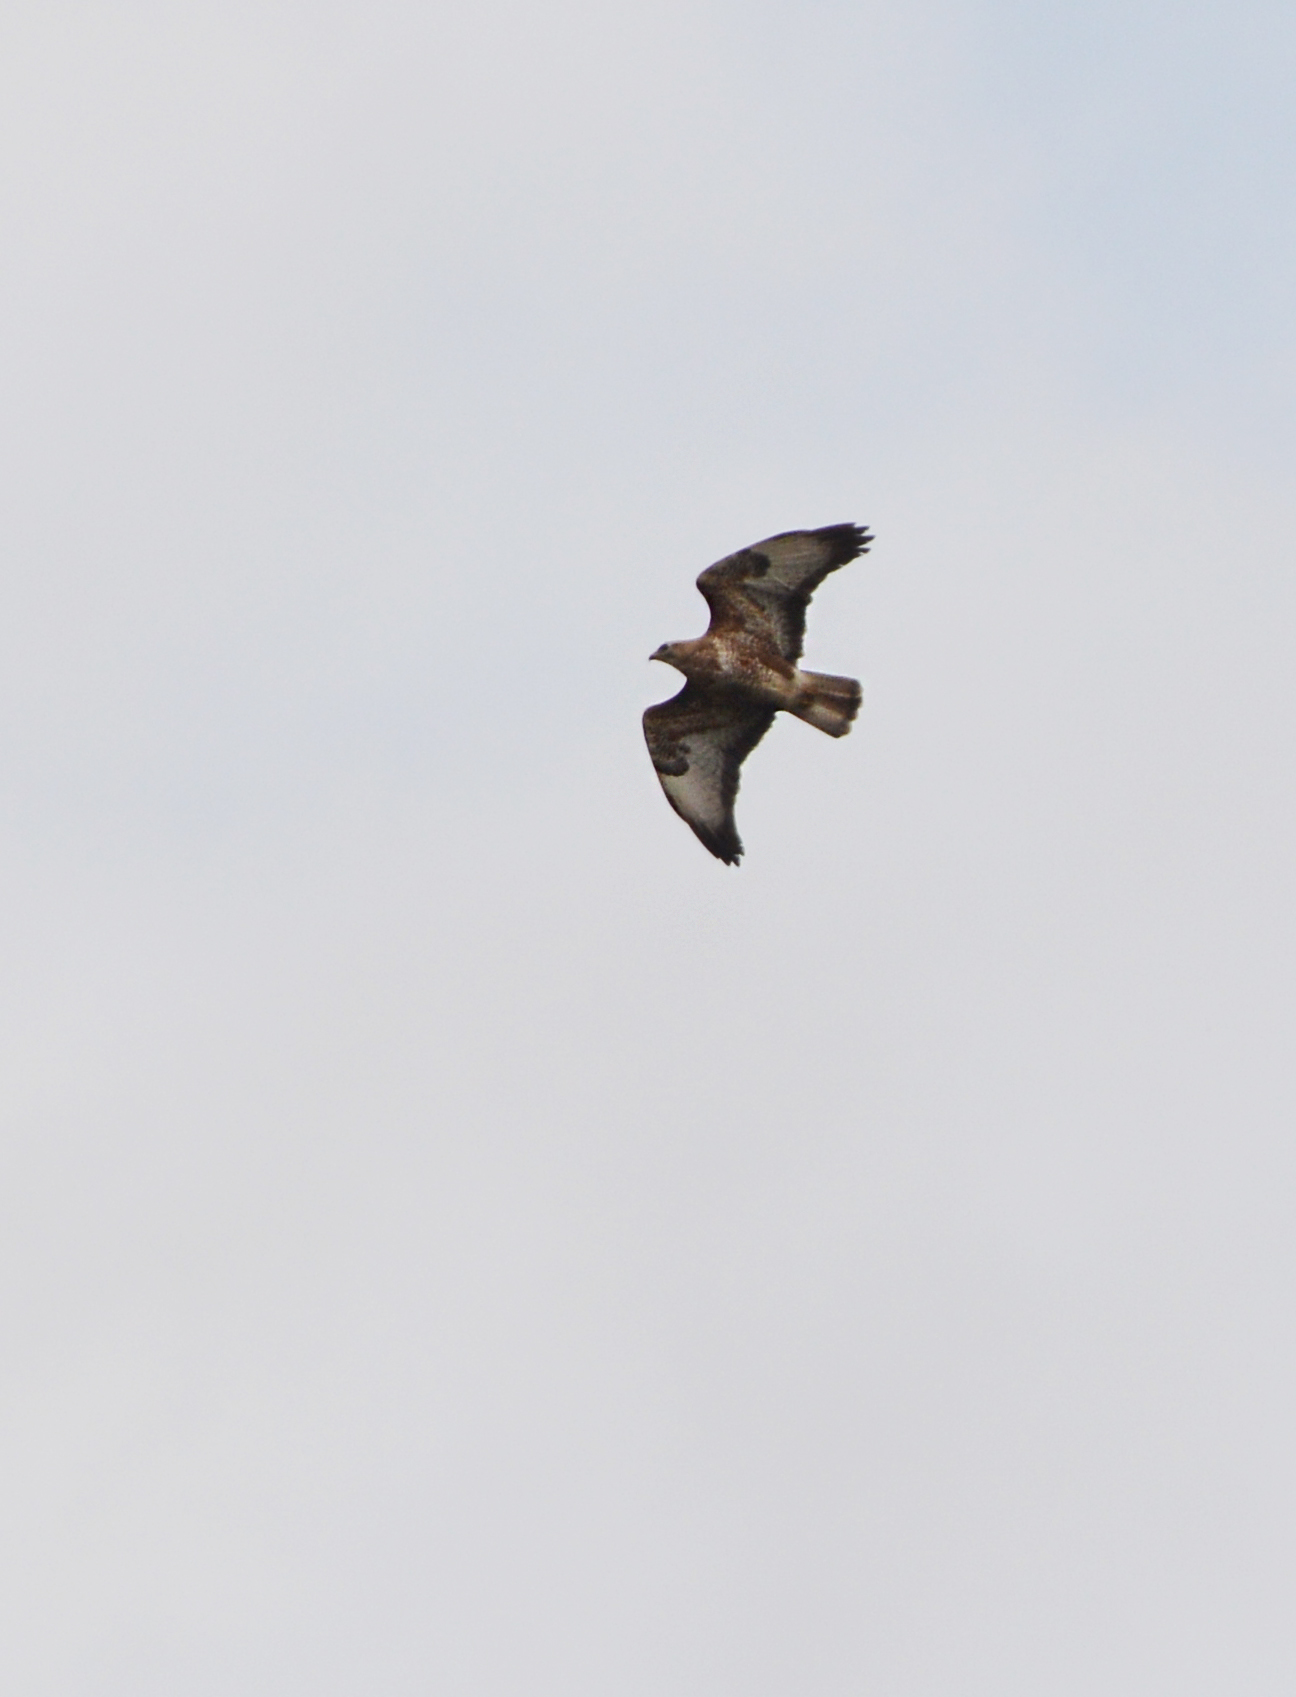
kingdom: Animalia
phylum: Chordata
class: Aves
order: Accipitriformes
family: Accipitridae
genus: Buteo
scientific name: Buteo buteo
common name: Common buzzard
